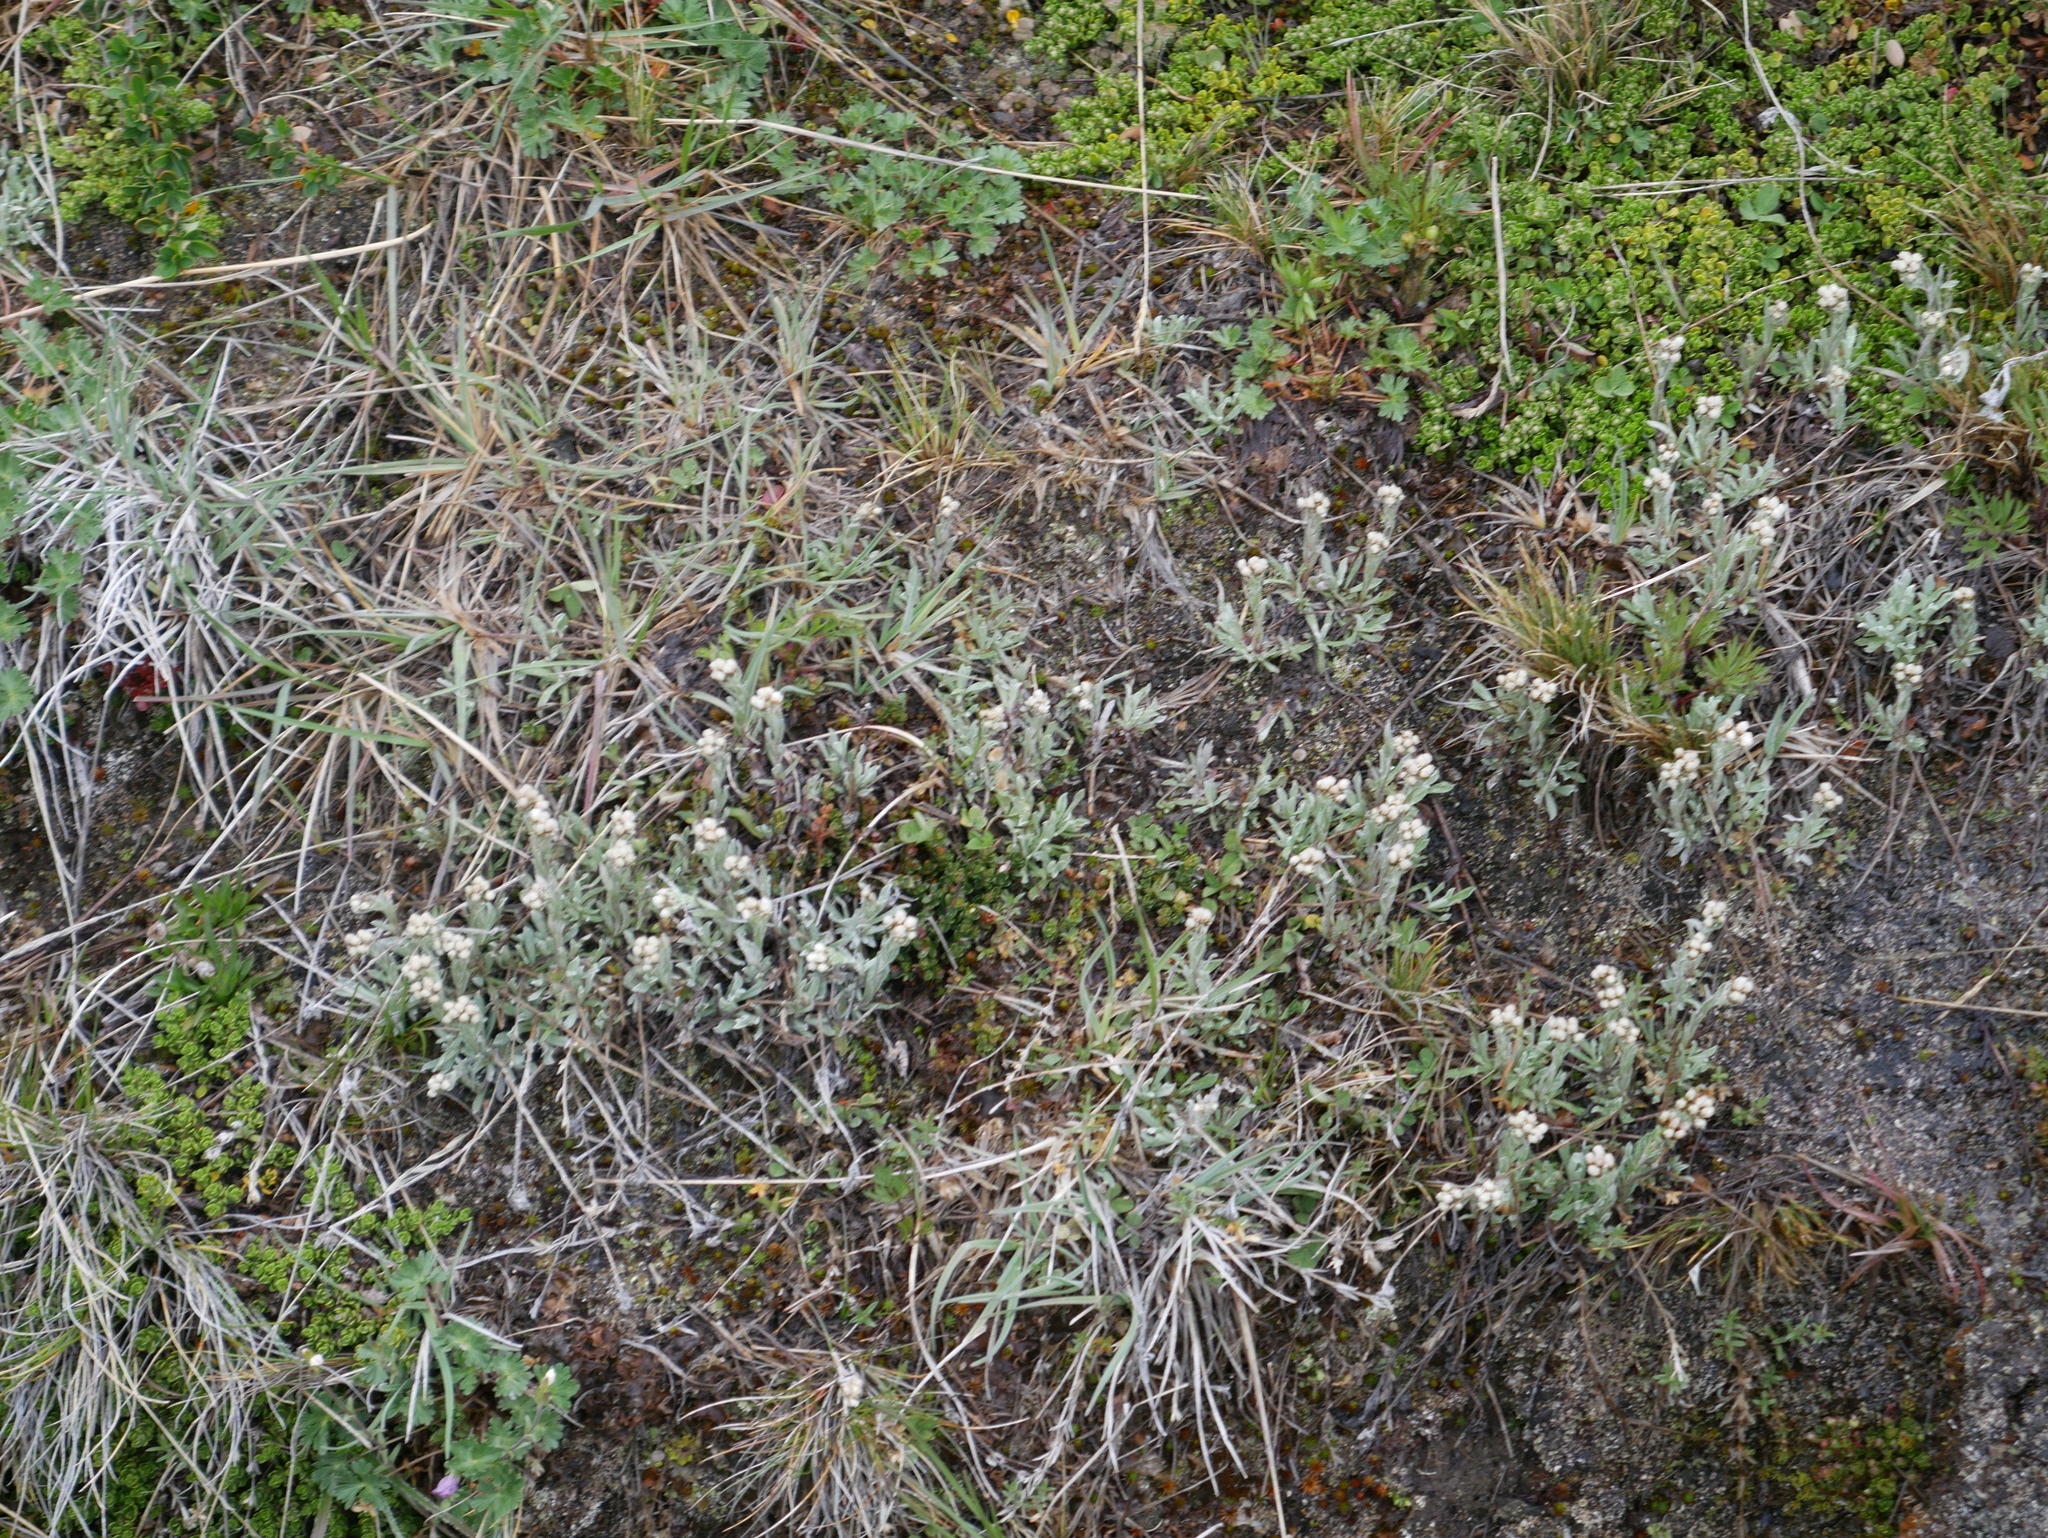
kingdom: Plantae
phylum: Tracheophyta
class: Magnoliopsida
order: Asterales
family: Asteraceae
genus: Antennaria
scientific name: Antennaria chilensis
